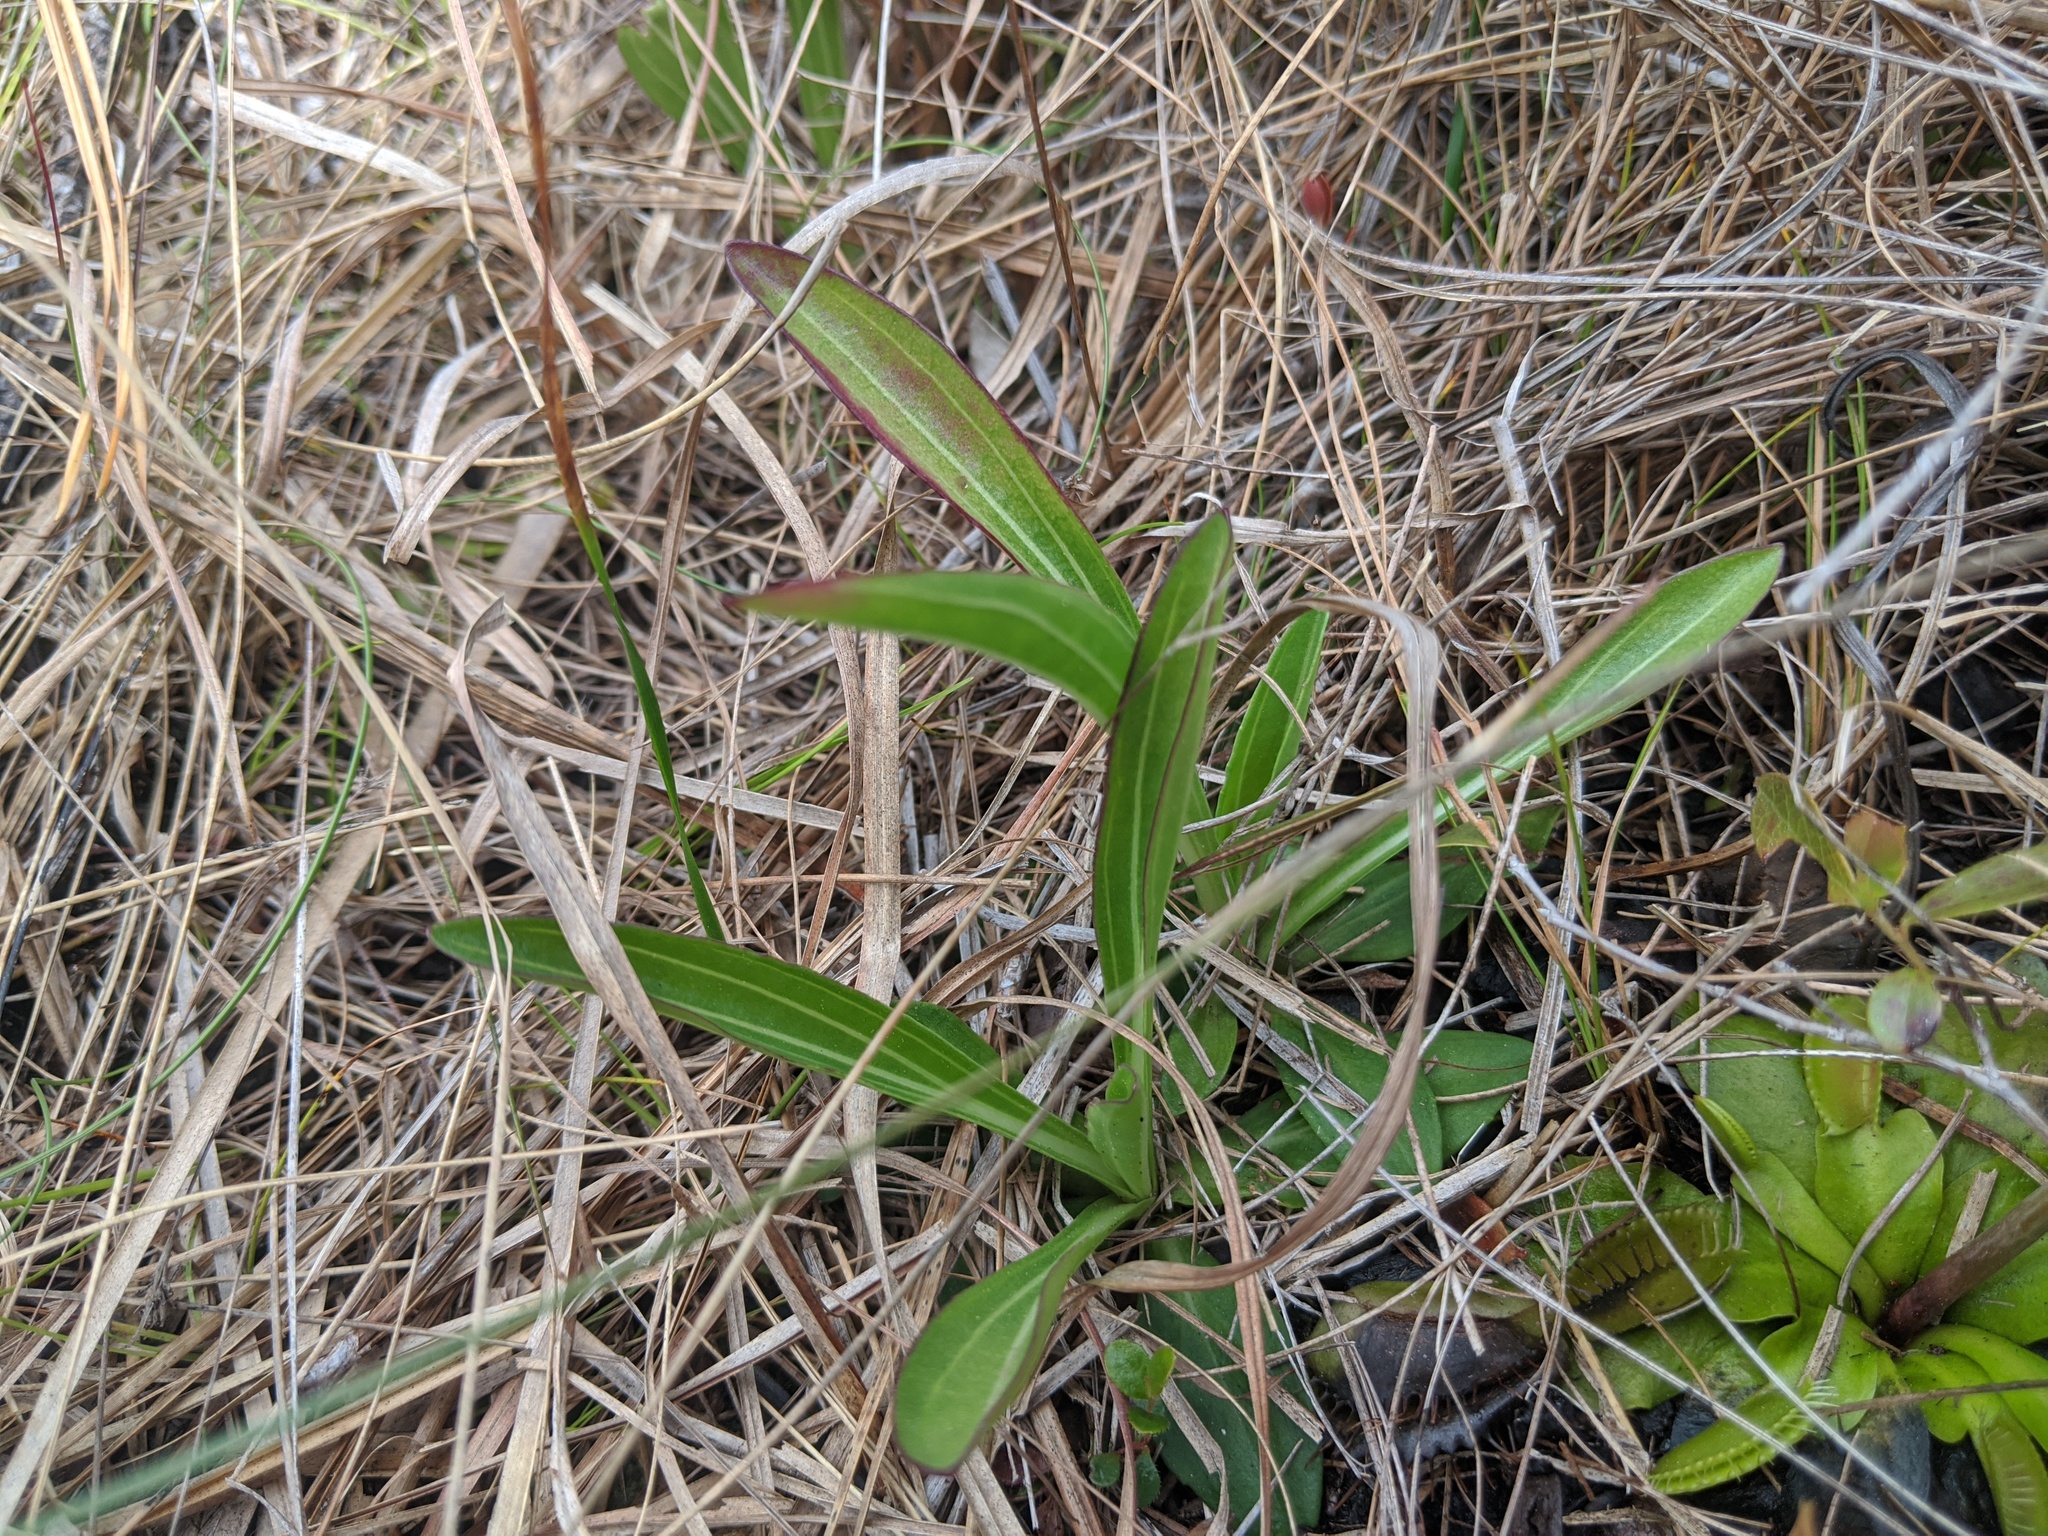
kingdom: Plantae
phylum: Tracheophyta
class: Magnoliopsida
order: Asterales
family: Asteraceae
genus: Carphephorus
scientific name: Carphephorus odoratissimus
